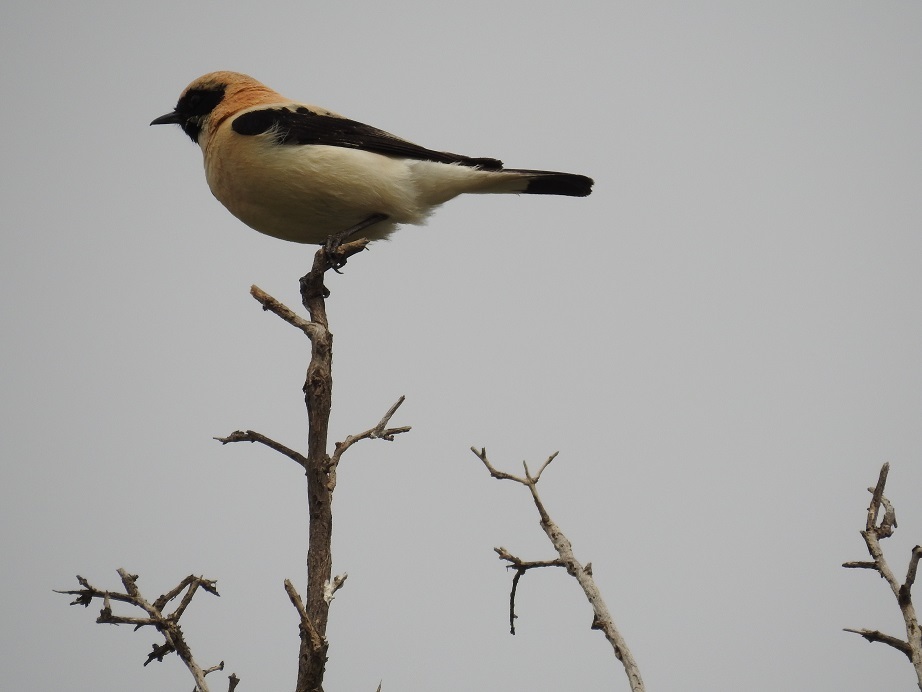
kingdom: Animalia
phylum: Chordata
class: Aves
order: Passeriformes
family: Muscicapidae
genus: Oenanthe
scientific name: Oenanthe hispanica
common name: Black-eared wheatear
